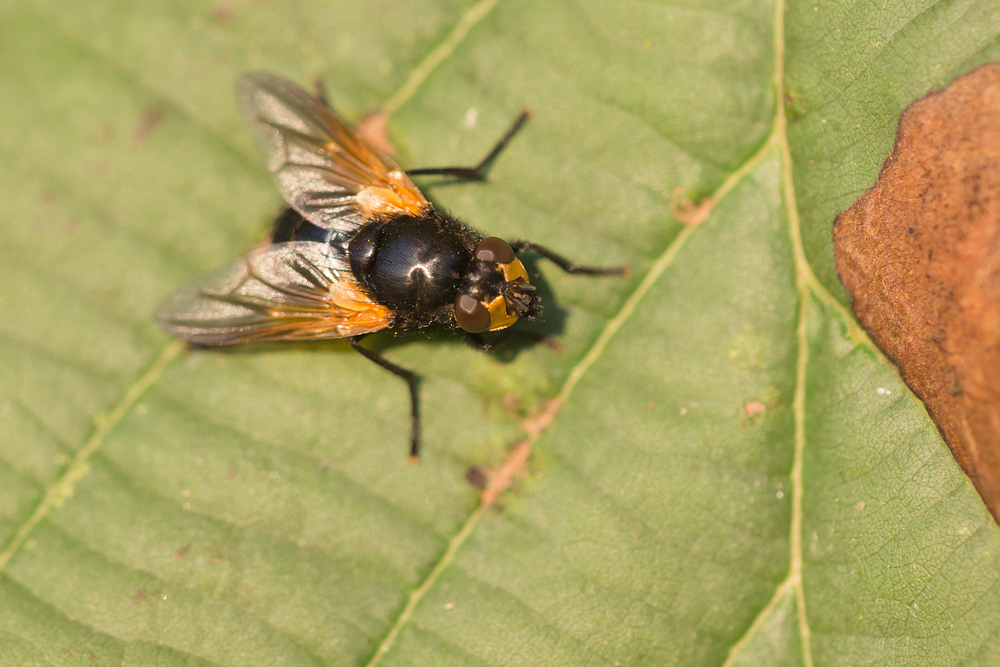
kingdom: Animalia
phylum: Arthropoda
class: Insecta
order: Diptera
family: Muscidae
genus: Mesembrina
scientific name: Mesembrina meridiana
